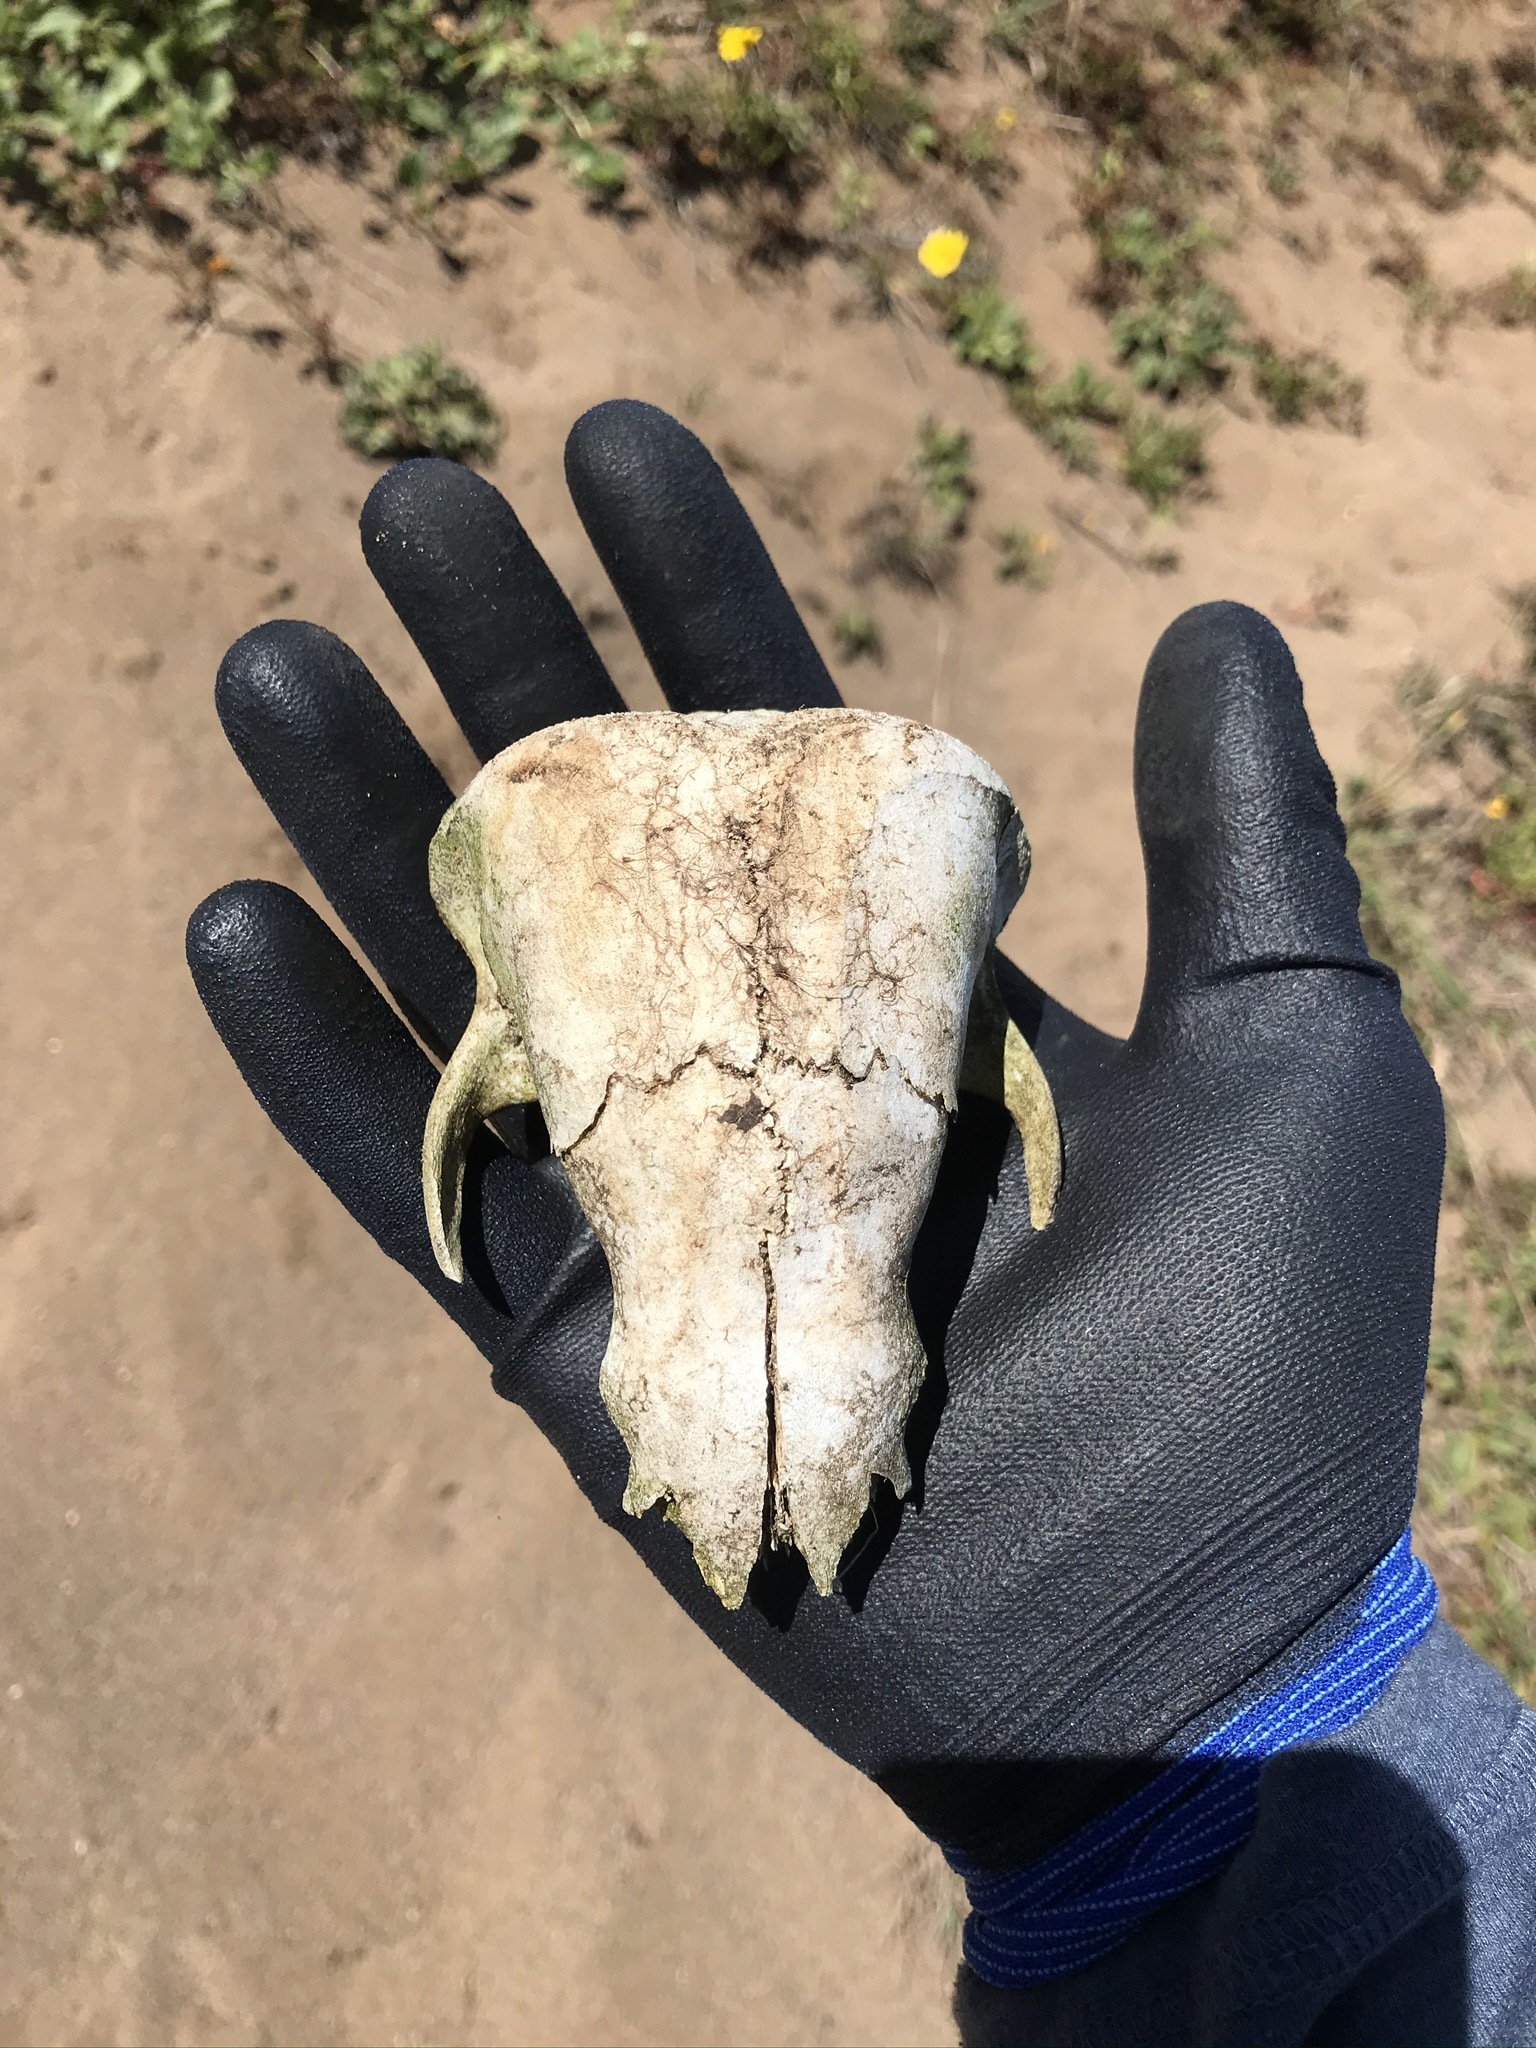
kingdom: Animalia
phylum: Chordata
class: Mammalia
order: Carnivora
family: Mustelidae
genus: Taxidea
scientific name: Taxidea taxus
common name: American badger
